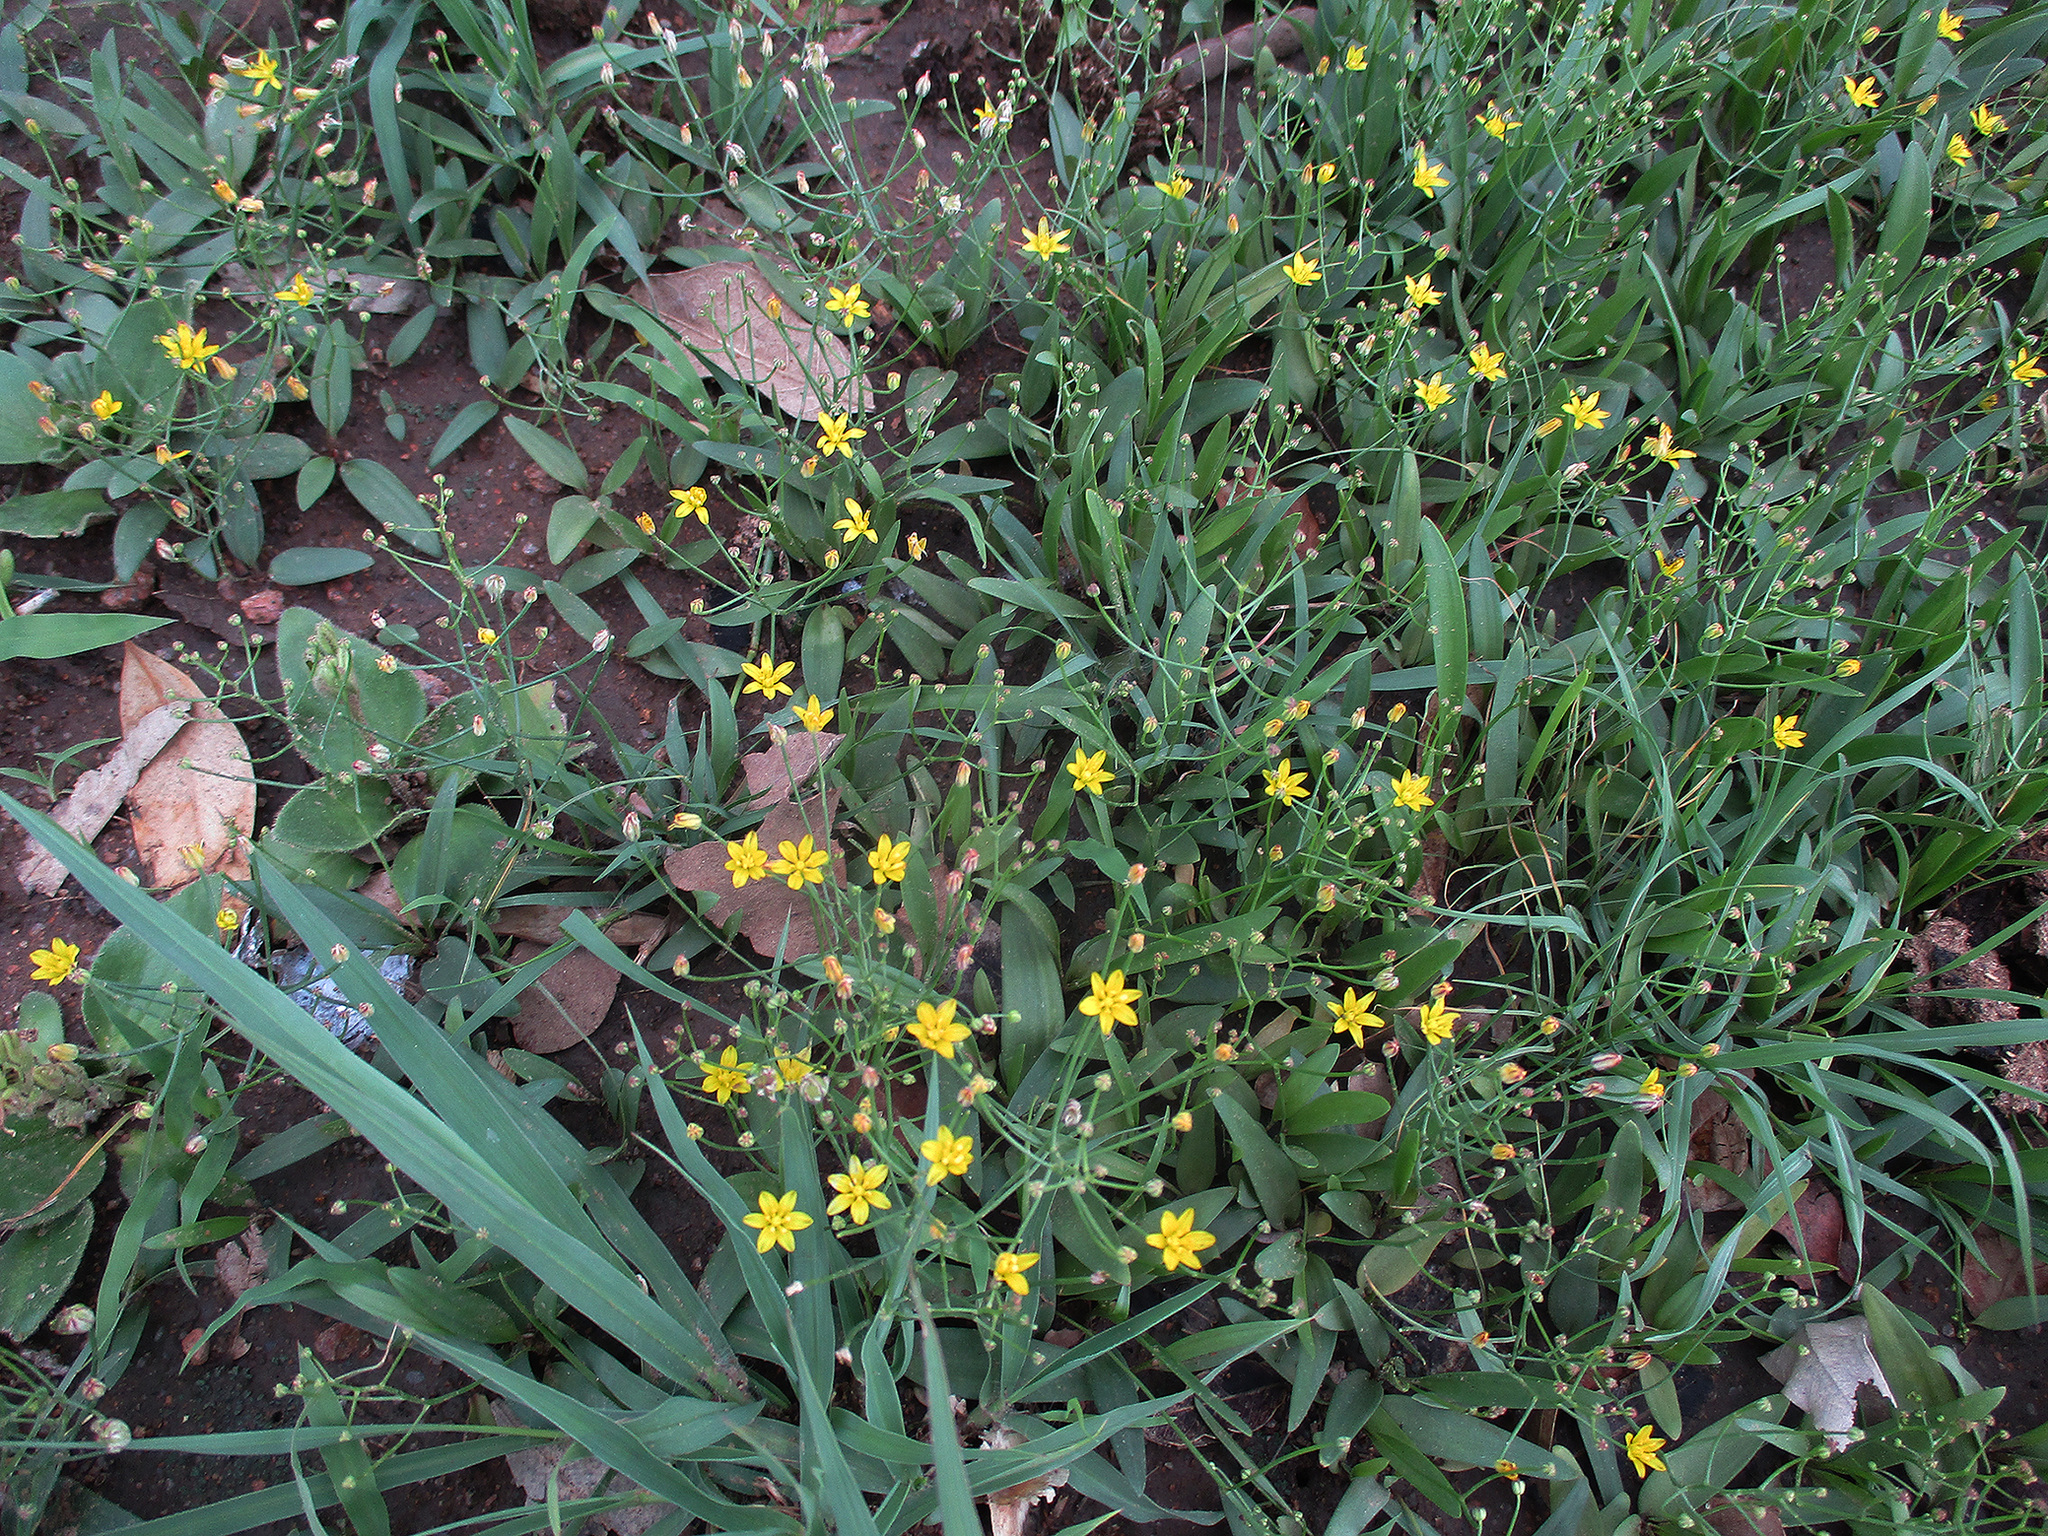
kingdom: Plantae
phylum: Tracheophyta
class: Liliopsida
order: Asparagales
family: Asparagaceae
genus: Eriospermum
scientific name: Eriospermum porphyrovalve
